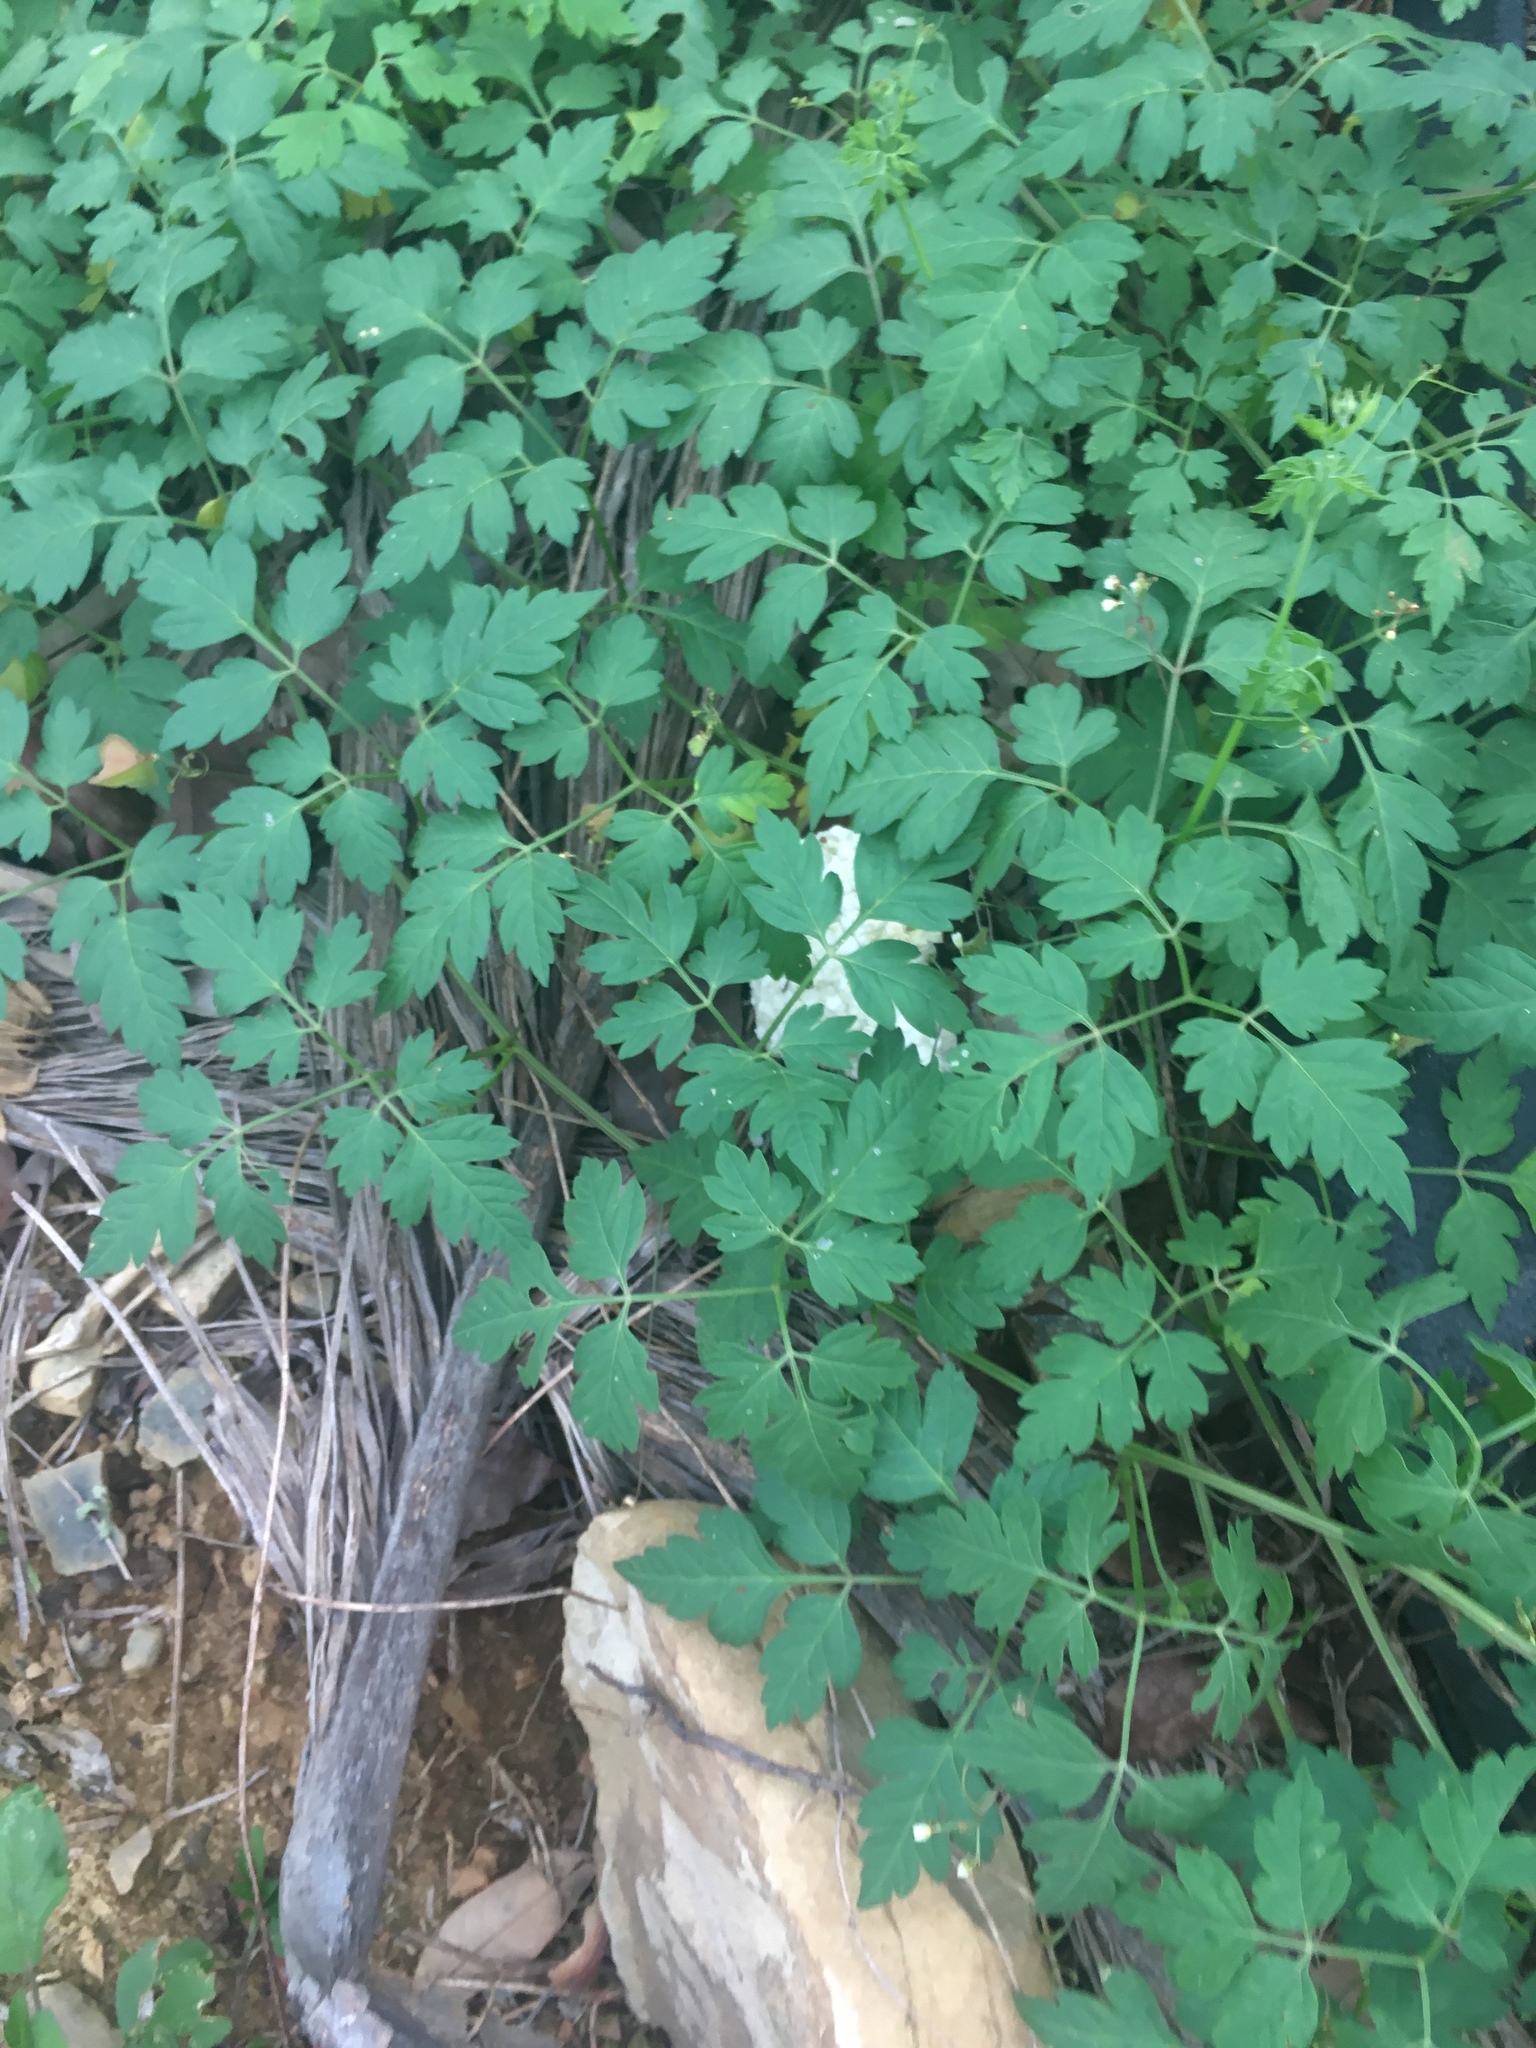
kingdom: Plantae
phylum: Tracheophyta
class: Magnoliopsida
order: Sapindales
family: Sapindaceae
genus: Cardiospermum
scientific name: Cardiospermum halicacabum
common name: Balloon vine
